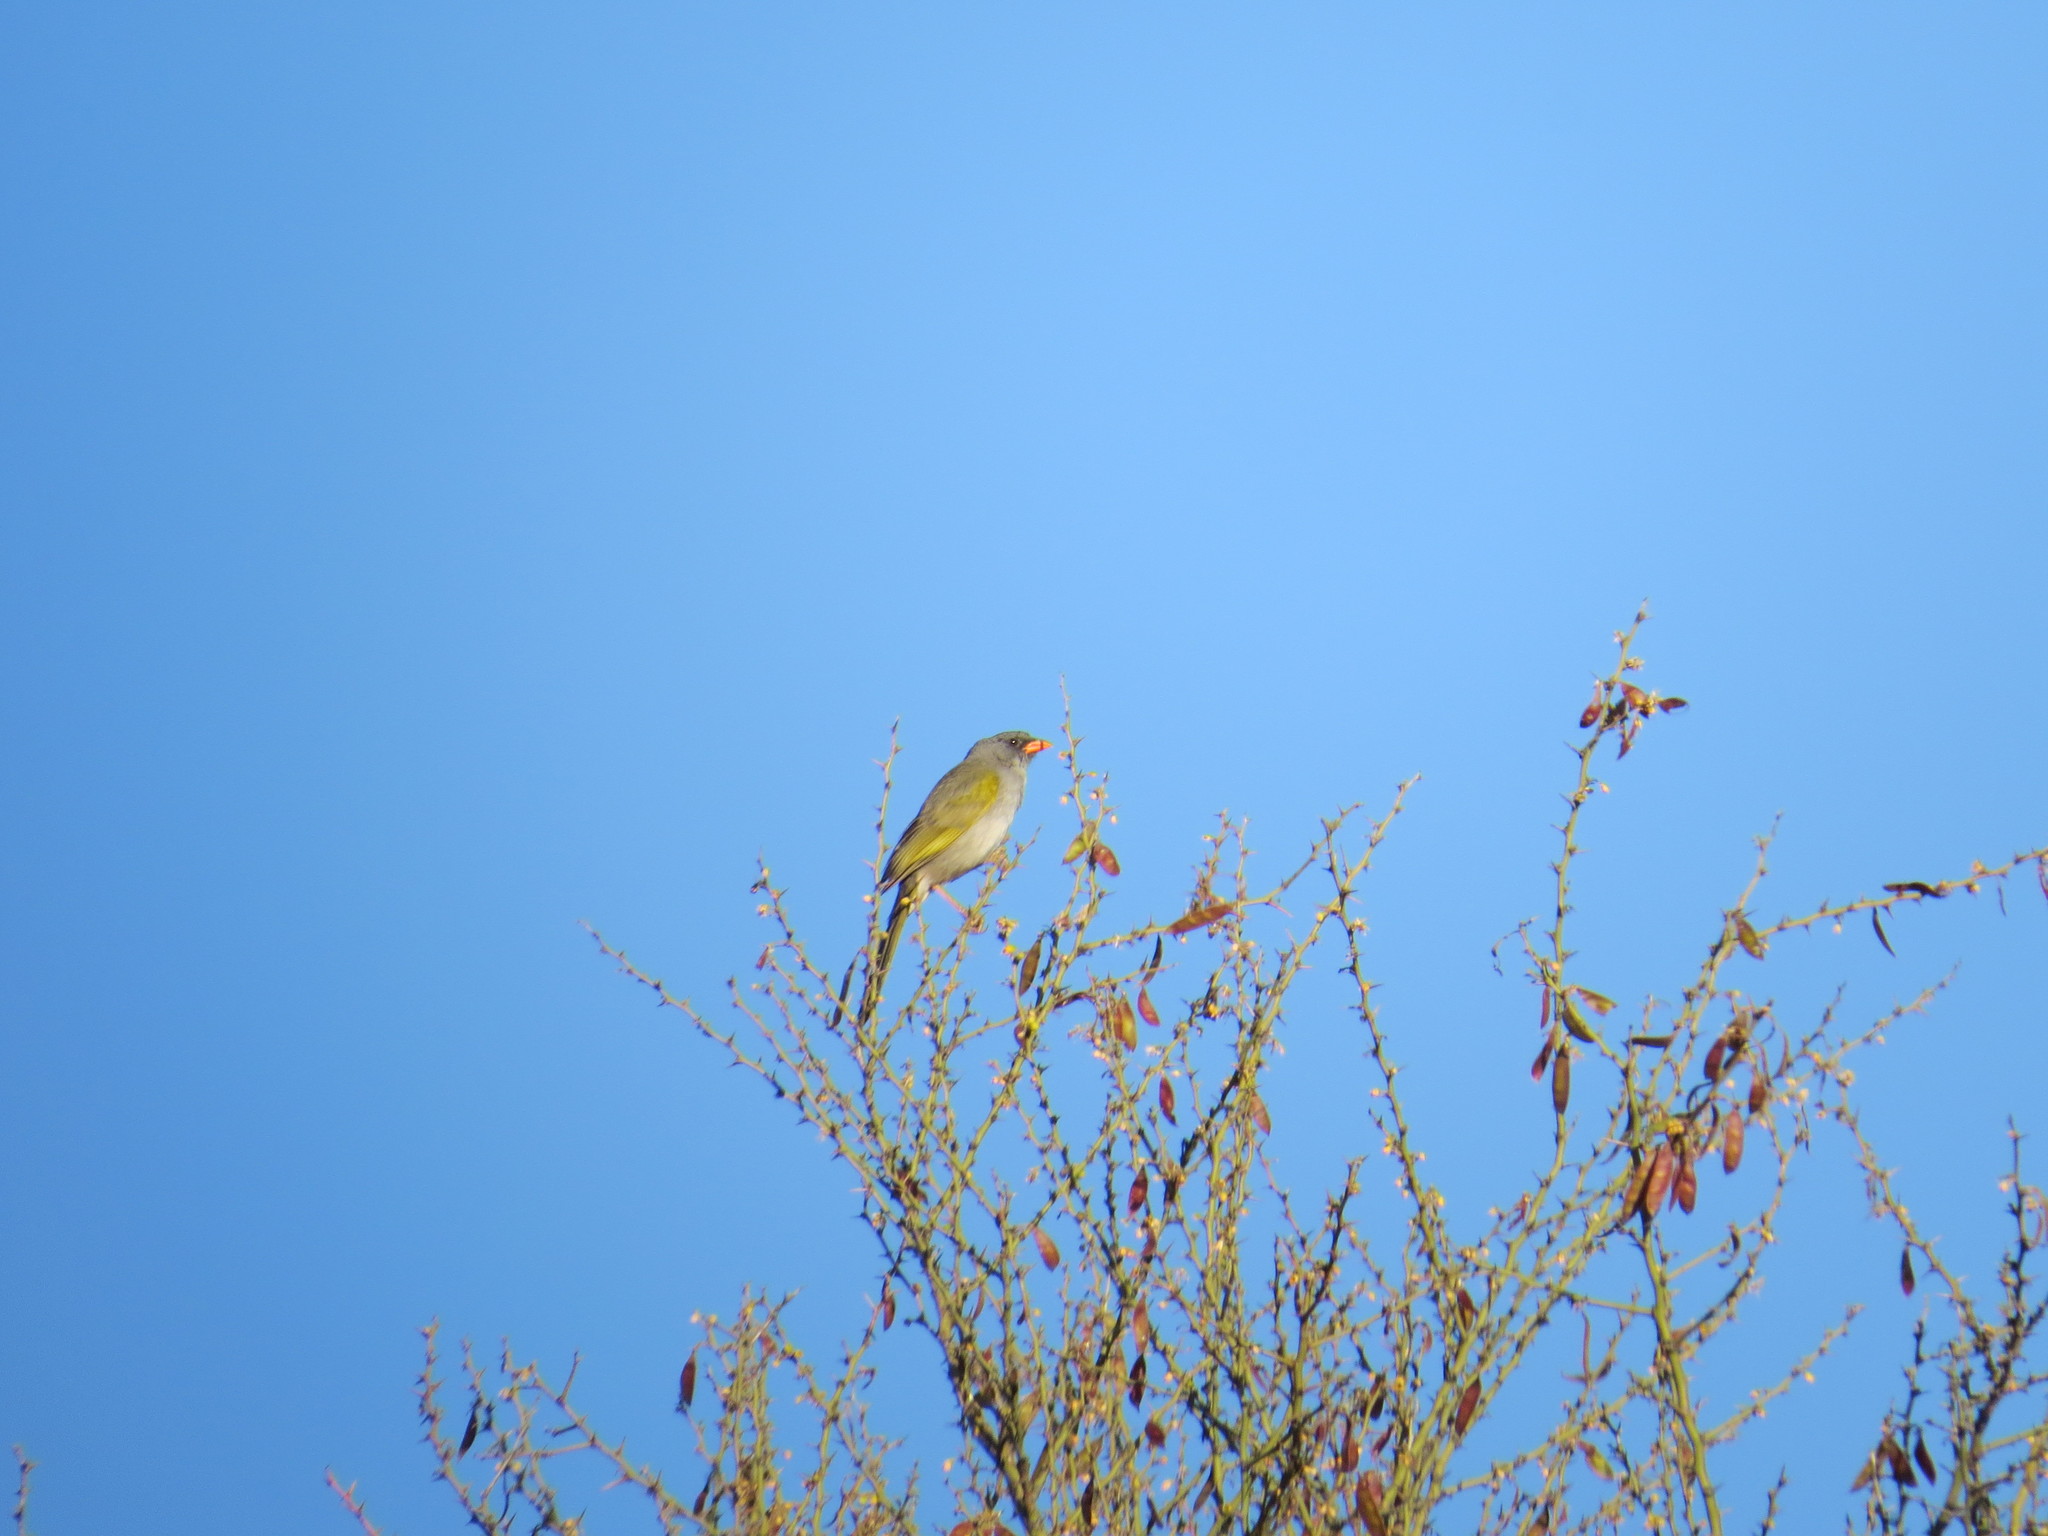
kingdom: Animalia
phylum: Chordata
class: Aves
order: Passeriformes
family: Thraupidae
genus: Embernagra
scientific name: Embernagra platensis
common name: Pampa finch
